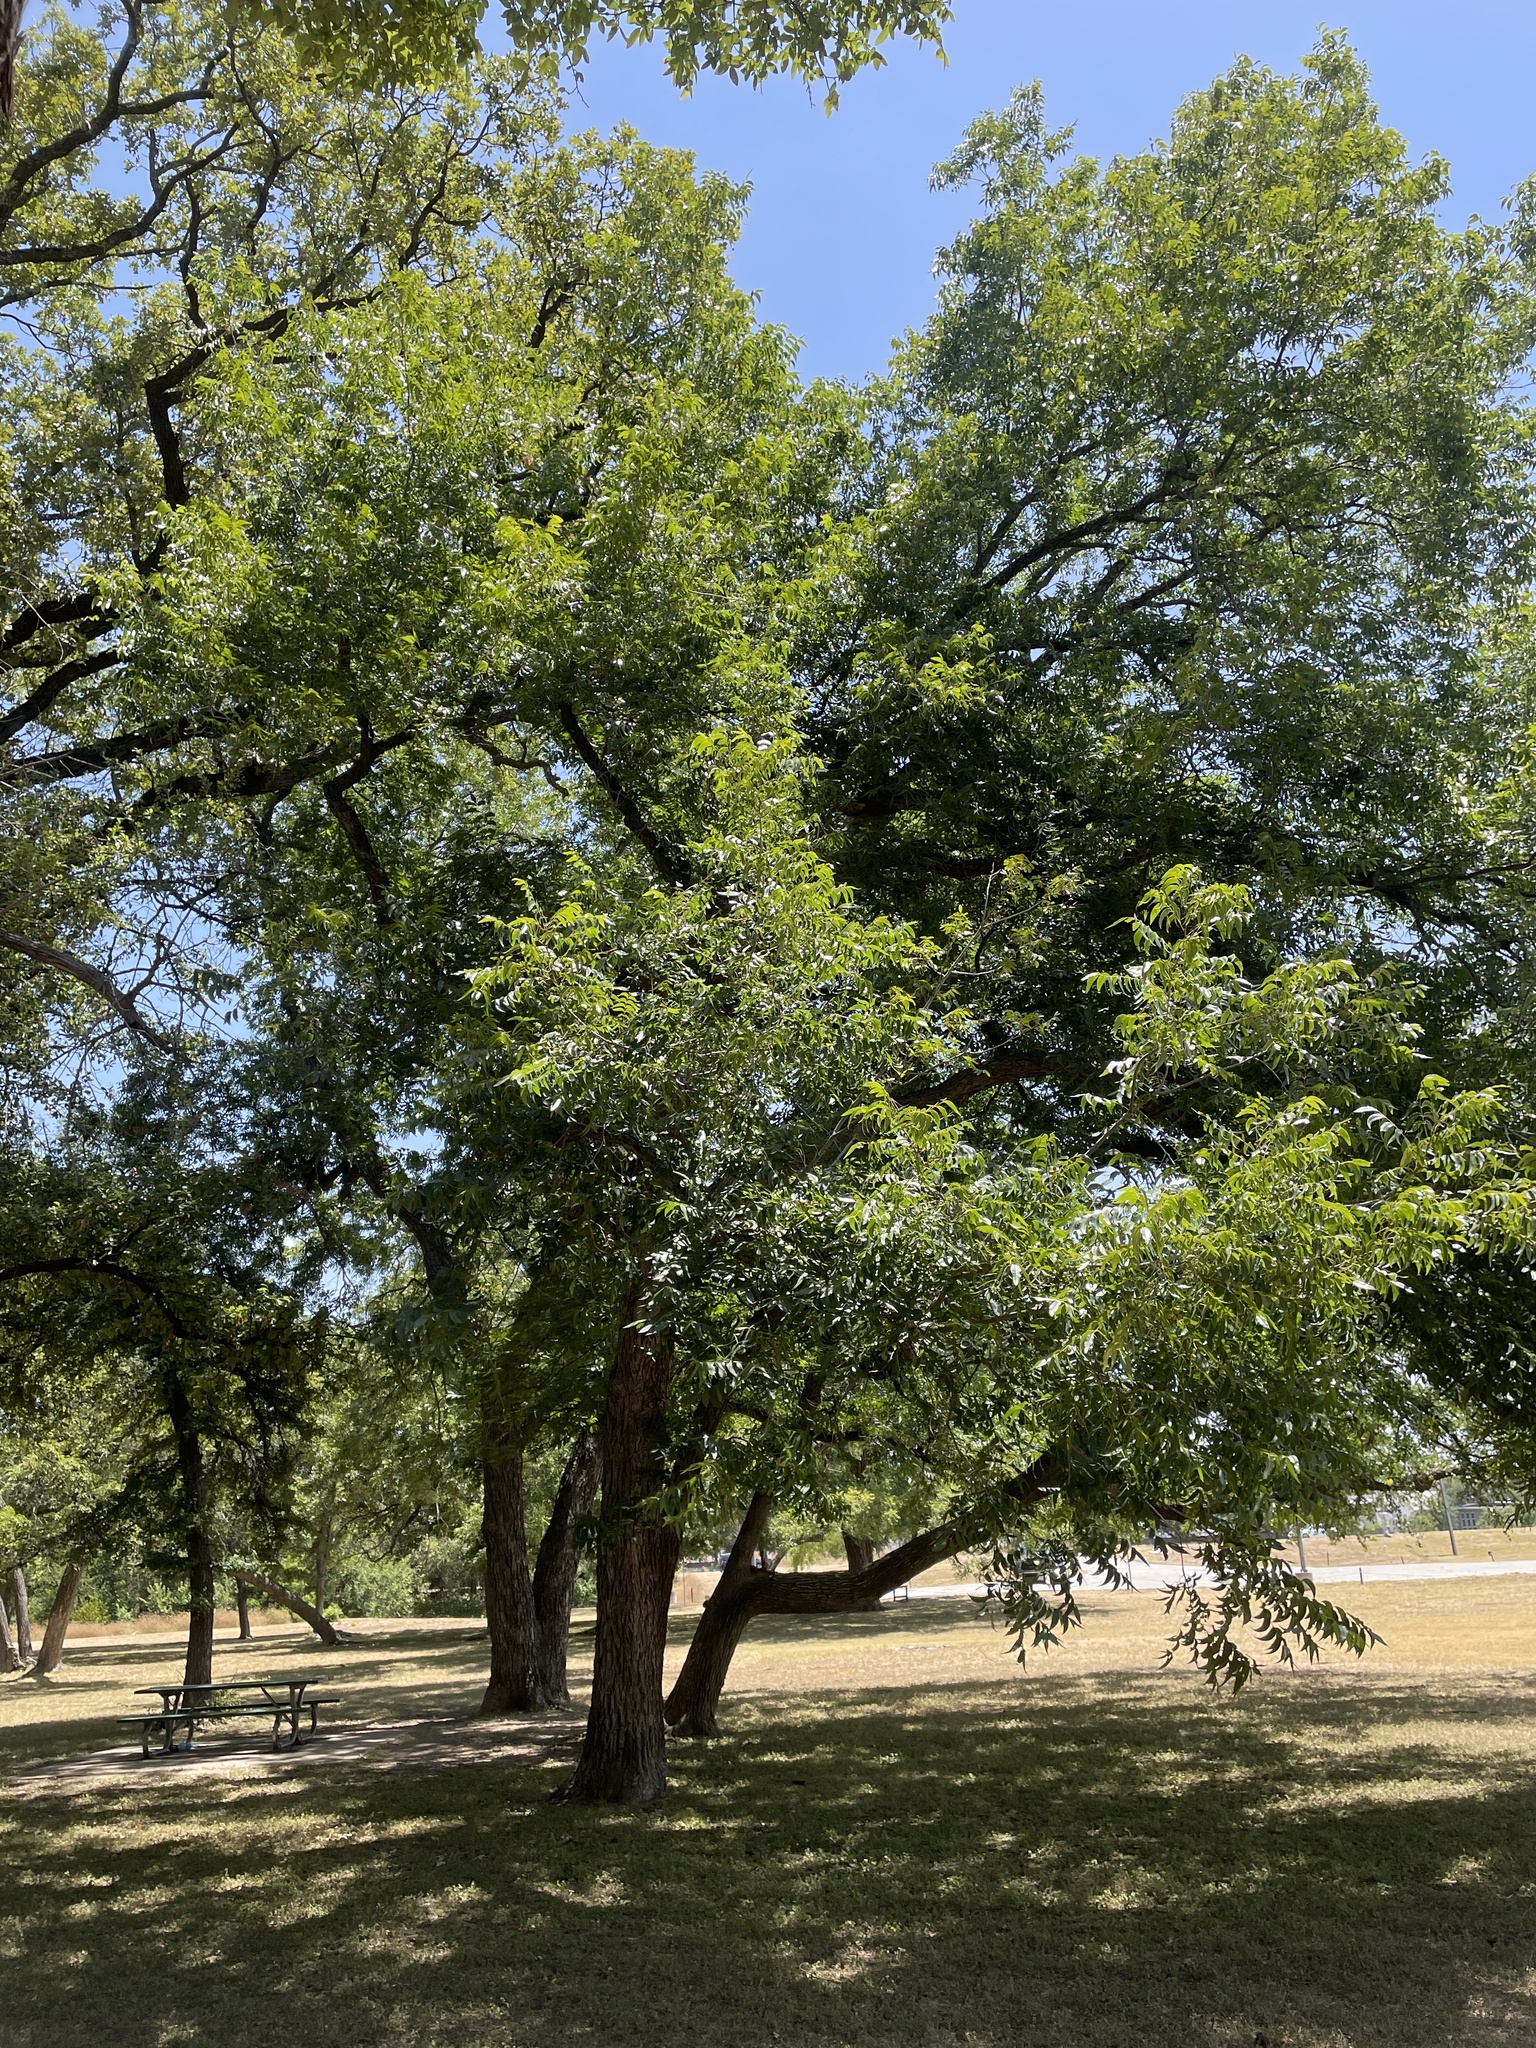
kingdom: Plantae
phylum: Tracheophyta
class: Magnoliopsida
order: Fagales
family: Juglandaceae
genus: Carya
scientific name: Carya illinoinensis
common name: Pecan
